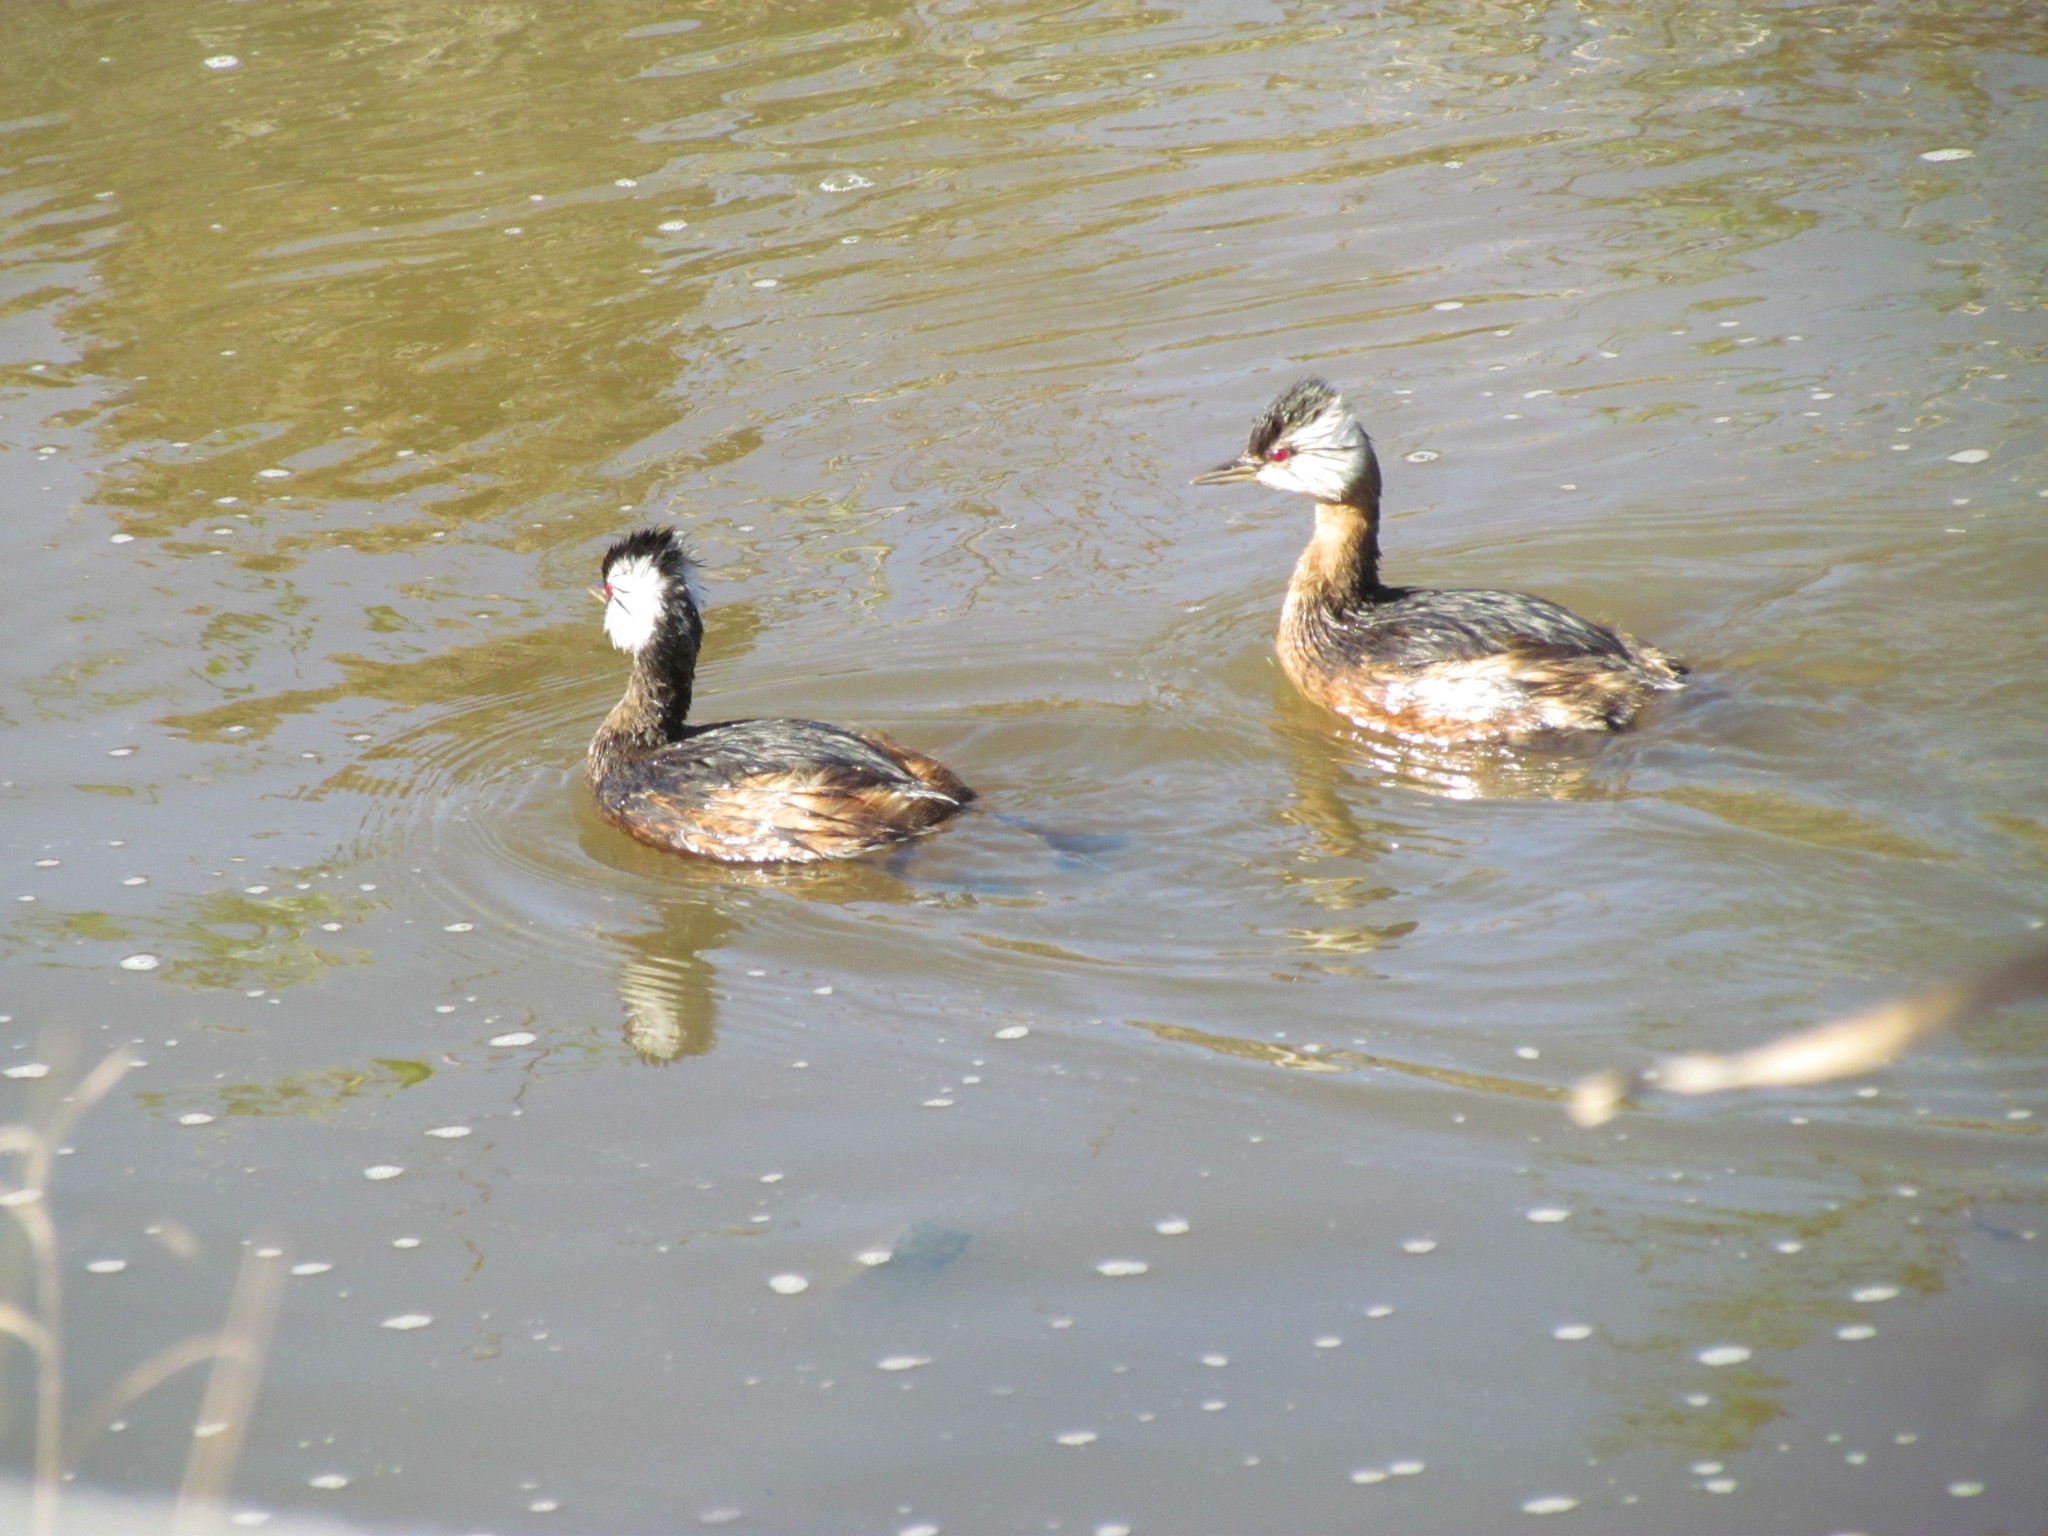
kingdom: Animalia
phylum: Chordata
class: Aves
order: Podicipediformes
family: Podicipedidae
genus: Rollandia
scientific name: Rollandia rolland
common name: White-tufted grebe
